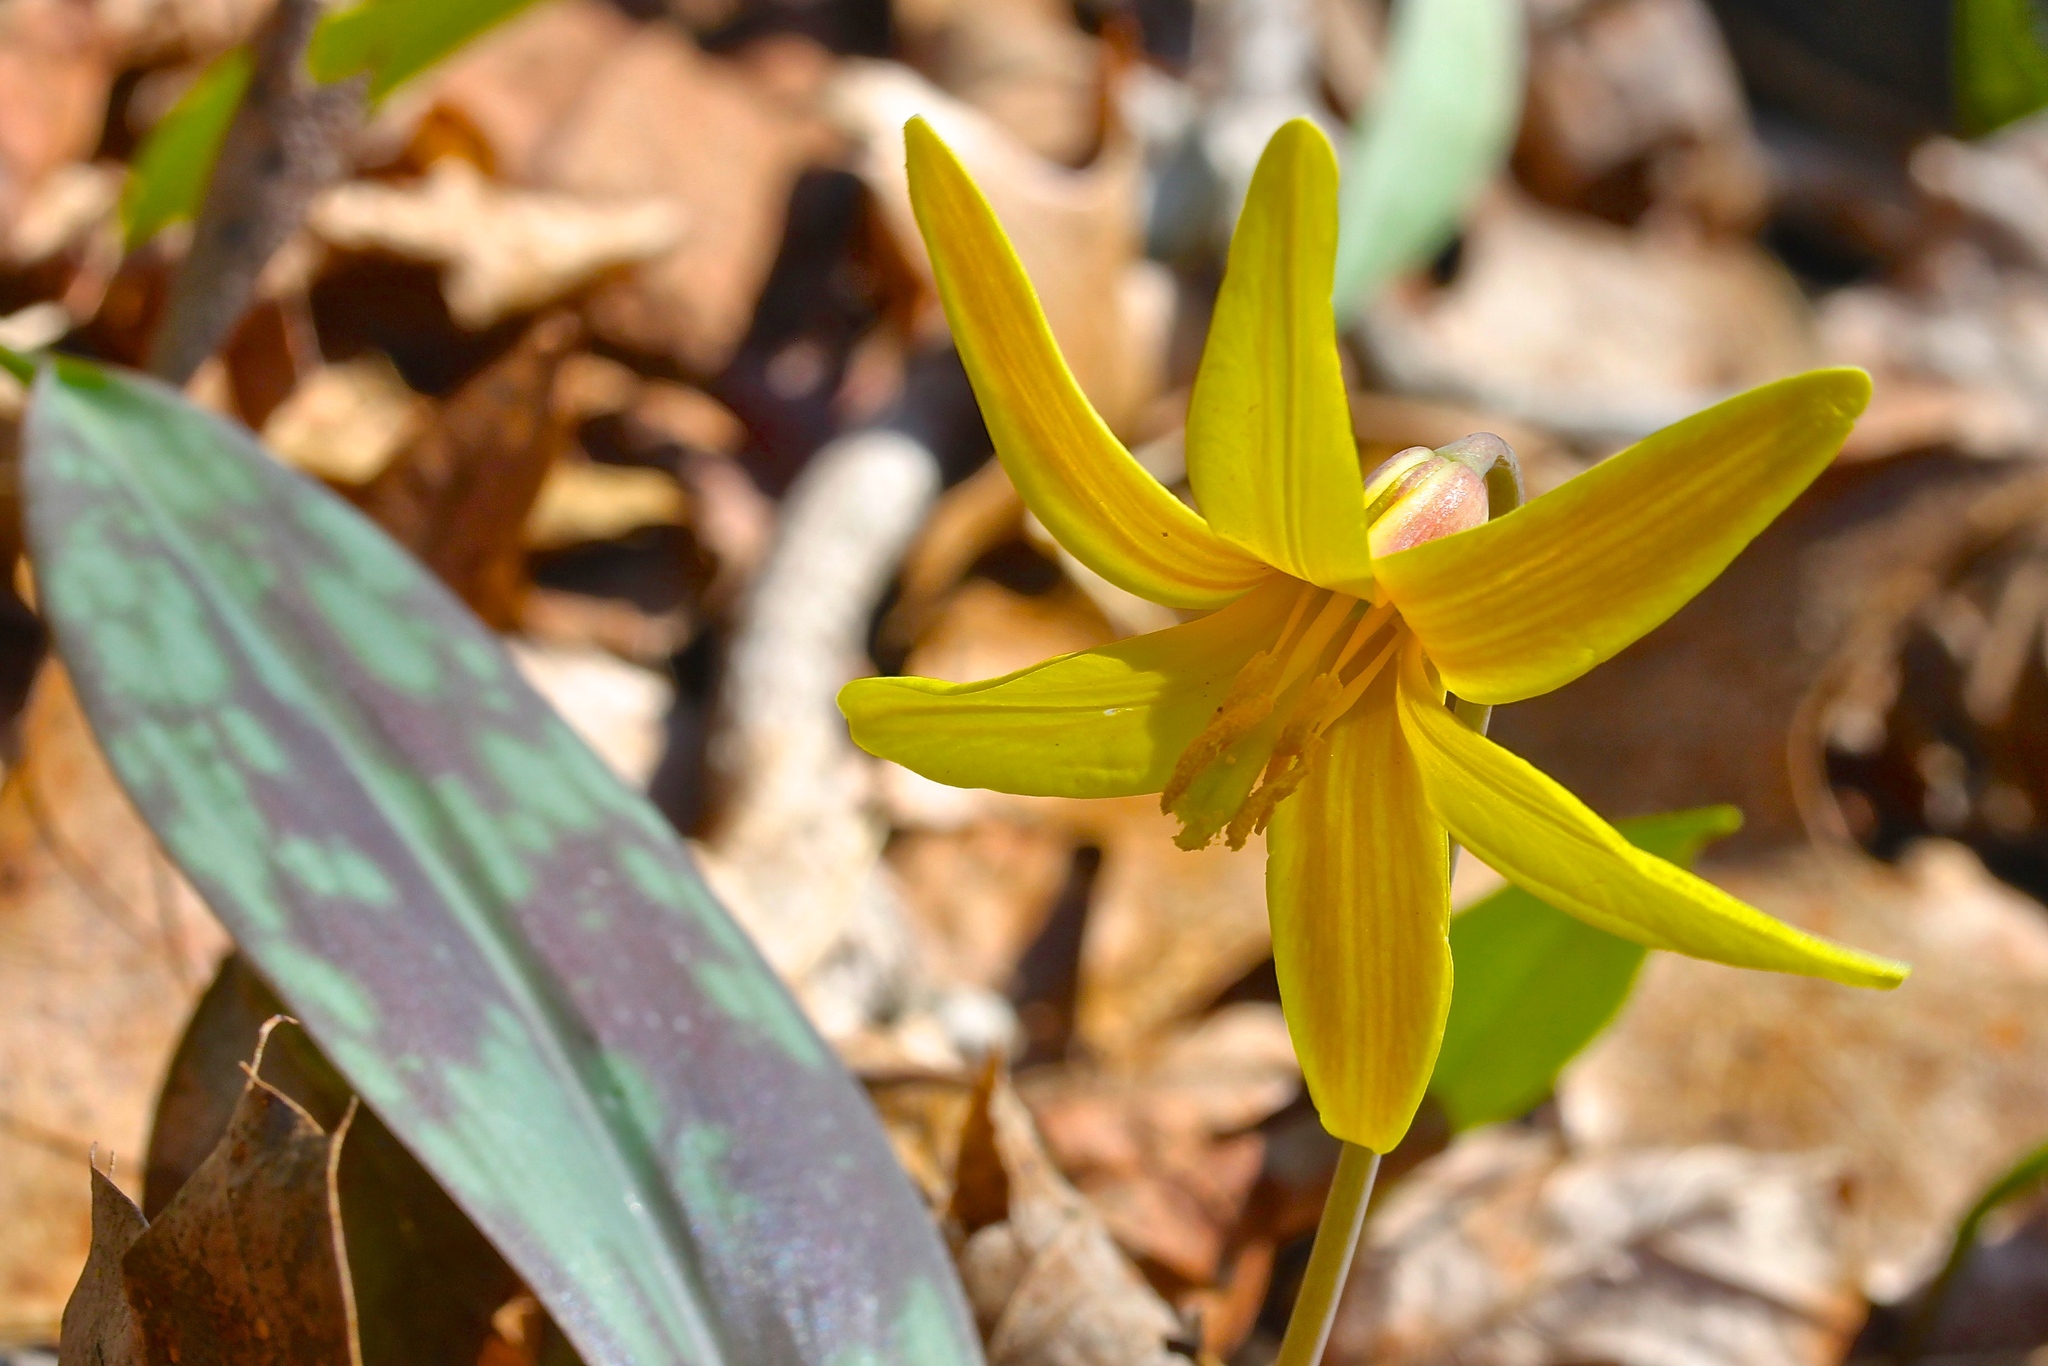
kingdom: Plantae
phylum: Tracheophyta
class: Liliopsida
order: Liliales
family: Liliaceae
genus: Erythronium
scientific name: Erythronium americanum
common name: Yellow adder's-tongue
